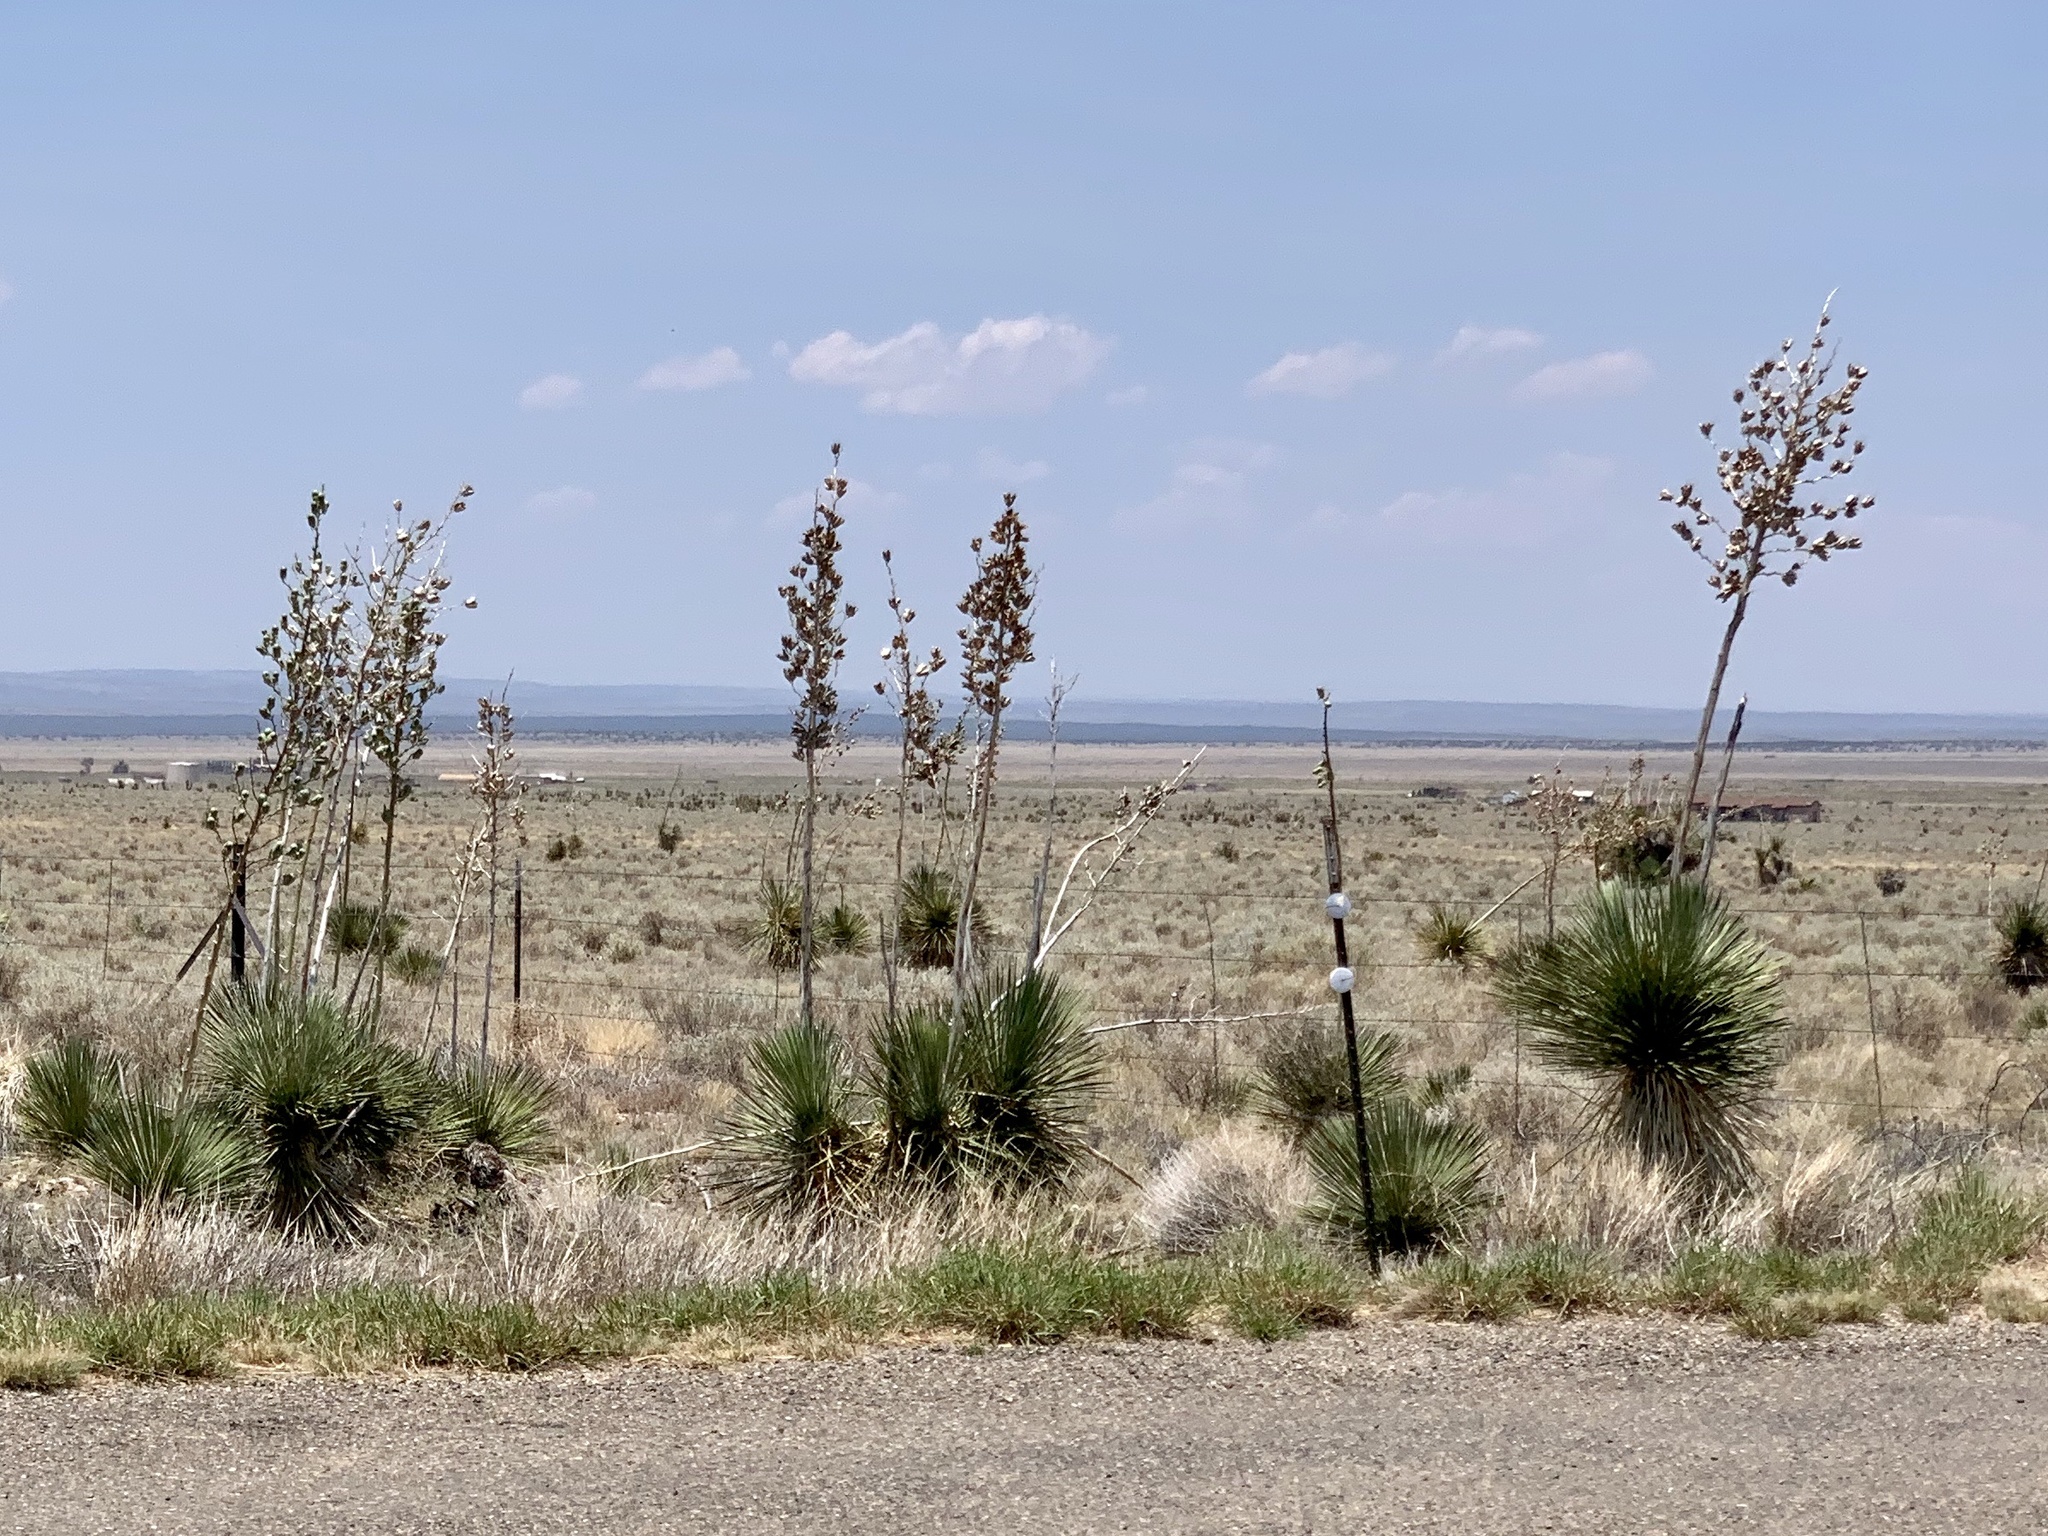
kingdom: Plantae
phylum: Tracheophyta
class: Liliopsida
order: Asparagales
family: Asparagaceae
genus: Yucca
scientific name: Yucca elata
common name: Palmella
